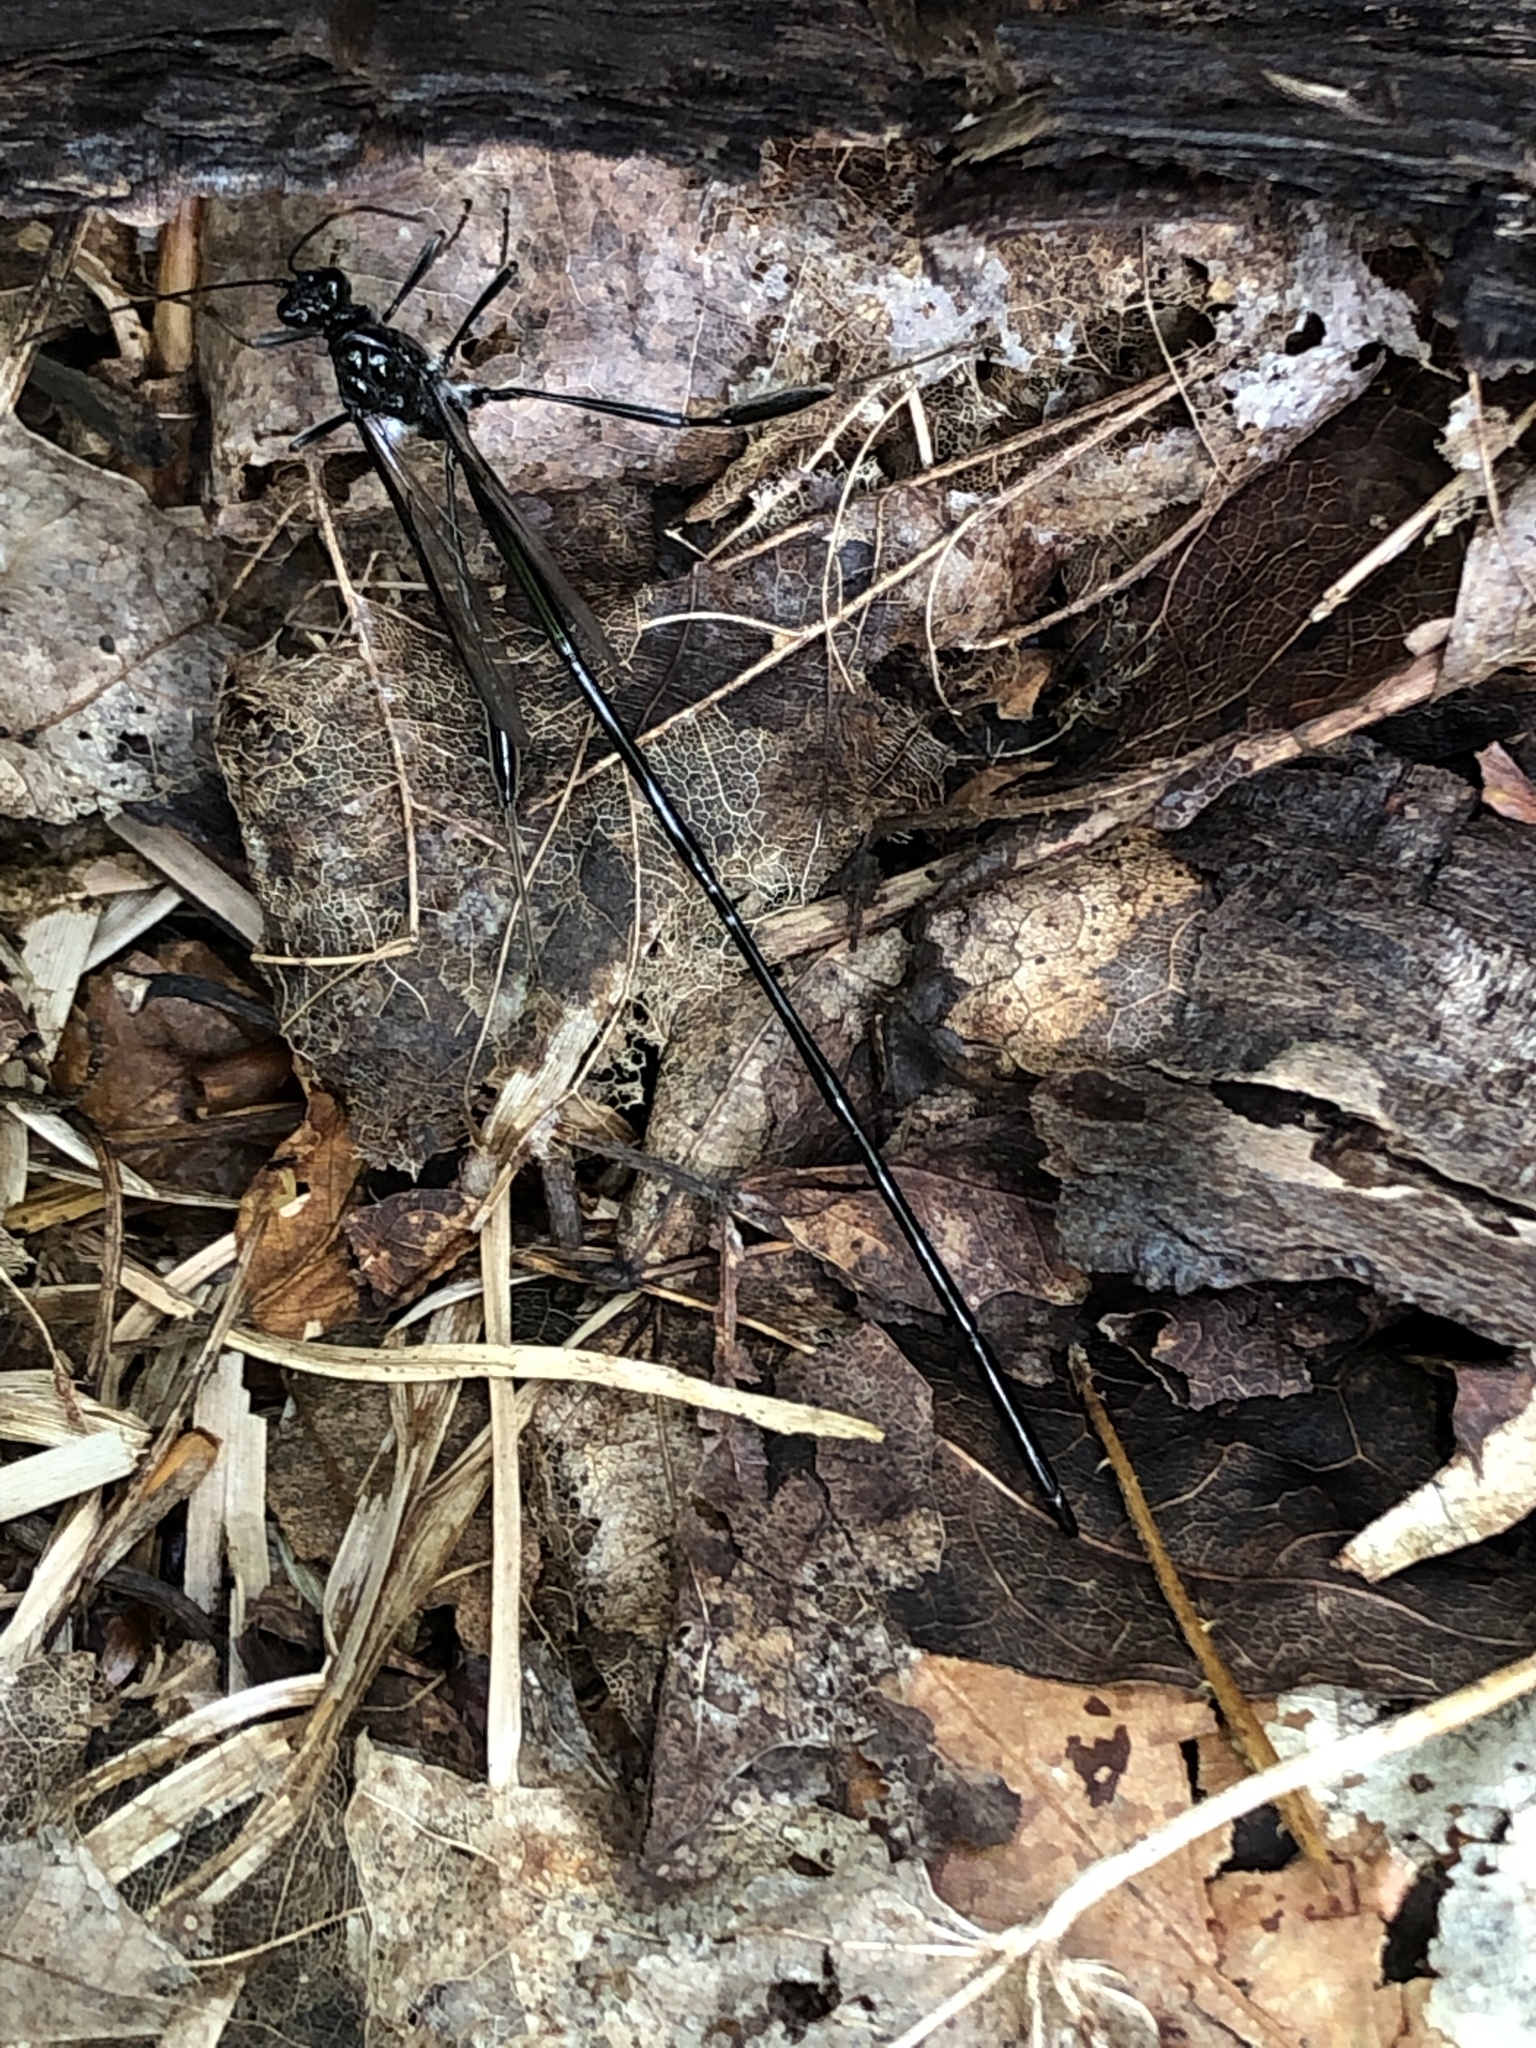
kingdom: Animalia
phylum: Arthropoda
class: Insecta
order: Hymenoptera
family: Pelecinidae
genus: Pelecinus
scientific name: Pelecinus polyturator
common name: American pelecinid wasp
